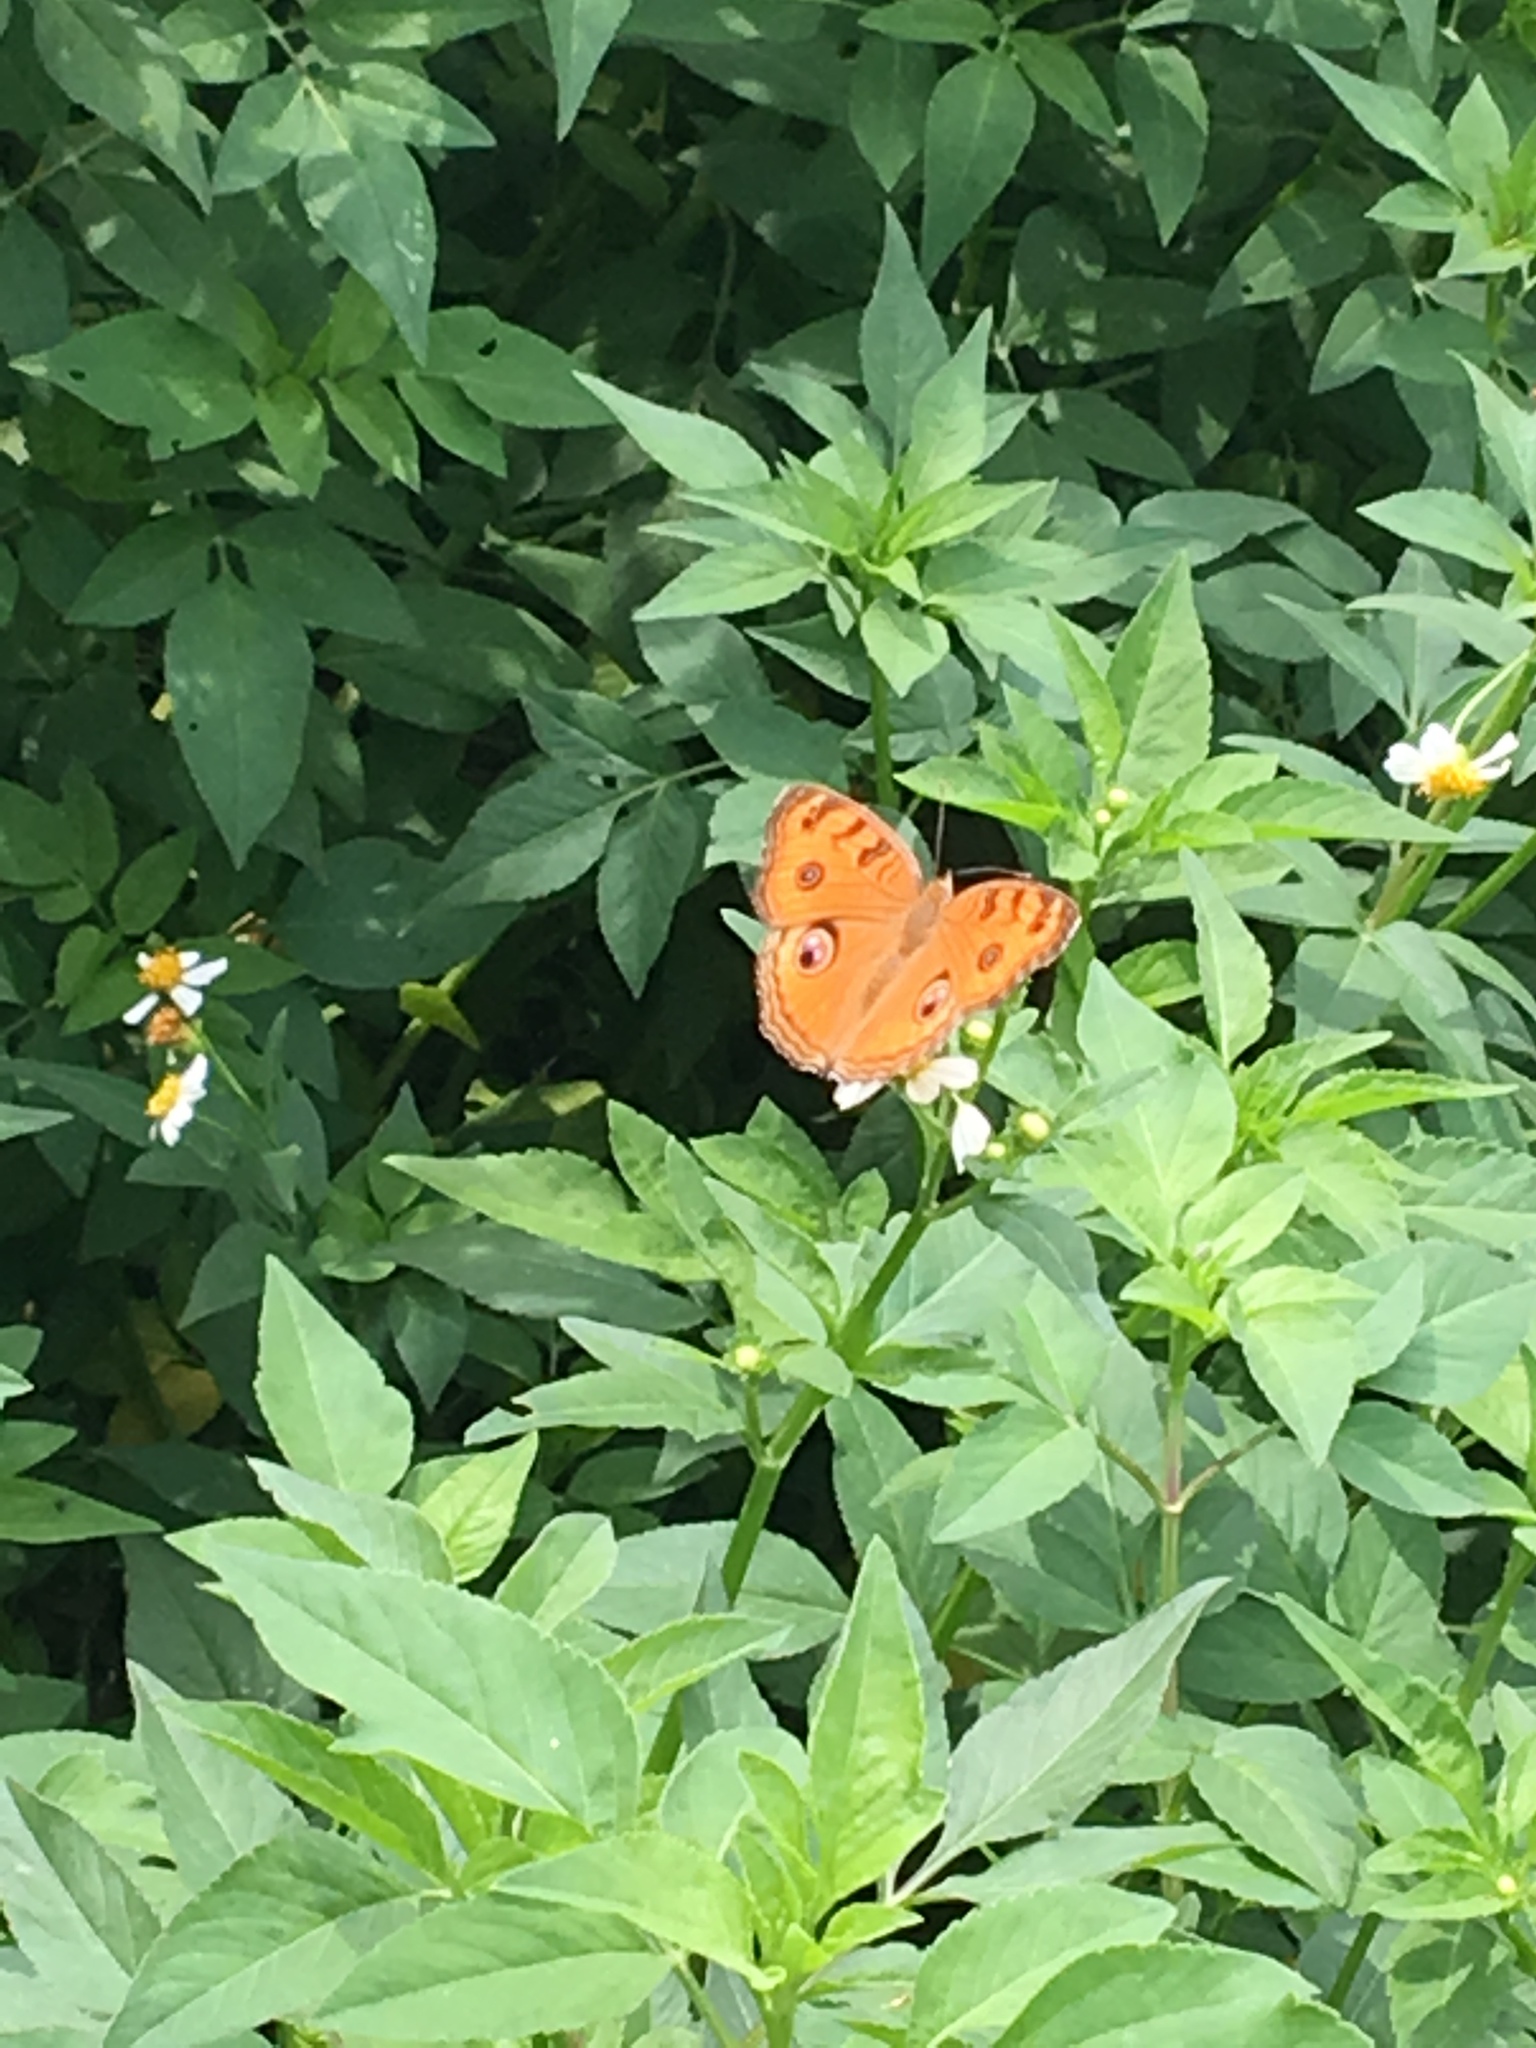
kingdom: Animalia
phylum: Arthropoda
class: Insecta
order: Lepidoptera
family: Nymphalidae
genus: Junonia
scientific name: Junonia almana
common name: Peacock pansy
